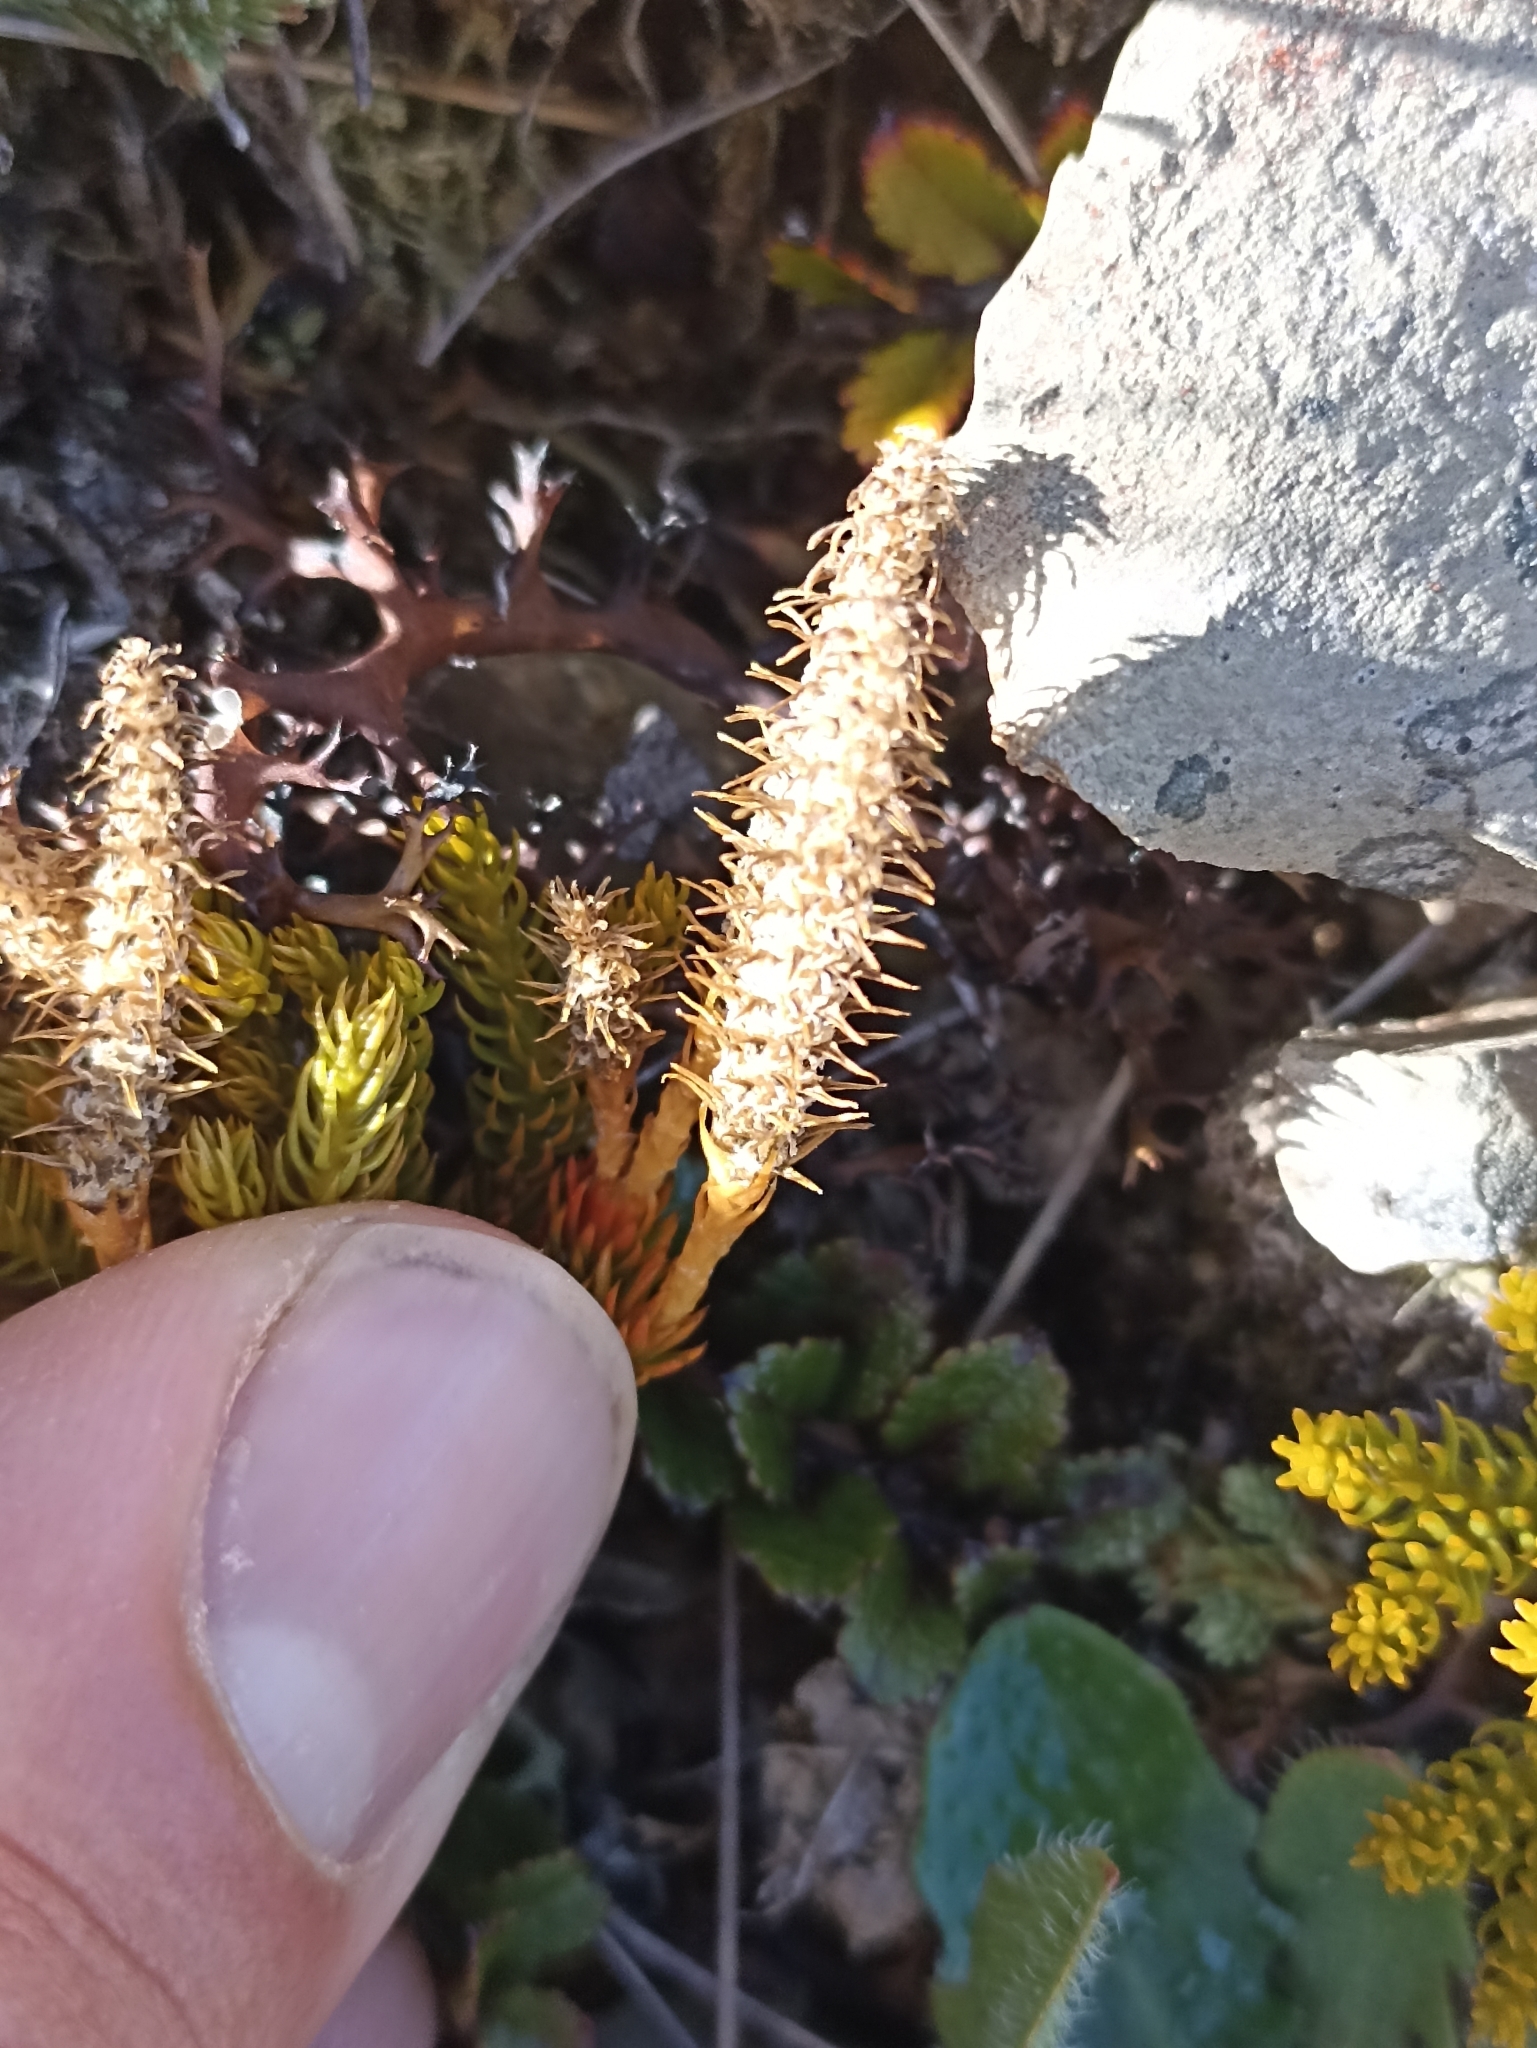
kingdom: Plantae
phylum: Tracheophyta
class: Lycopodiopsida
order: Lycopodiales
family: Lycopodiaceae
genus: Austrolycopodium
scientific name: Austrolycopodium fastigiatum
